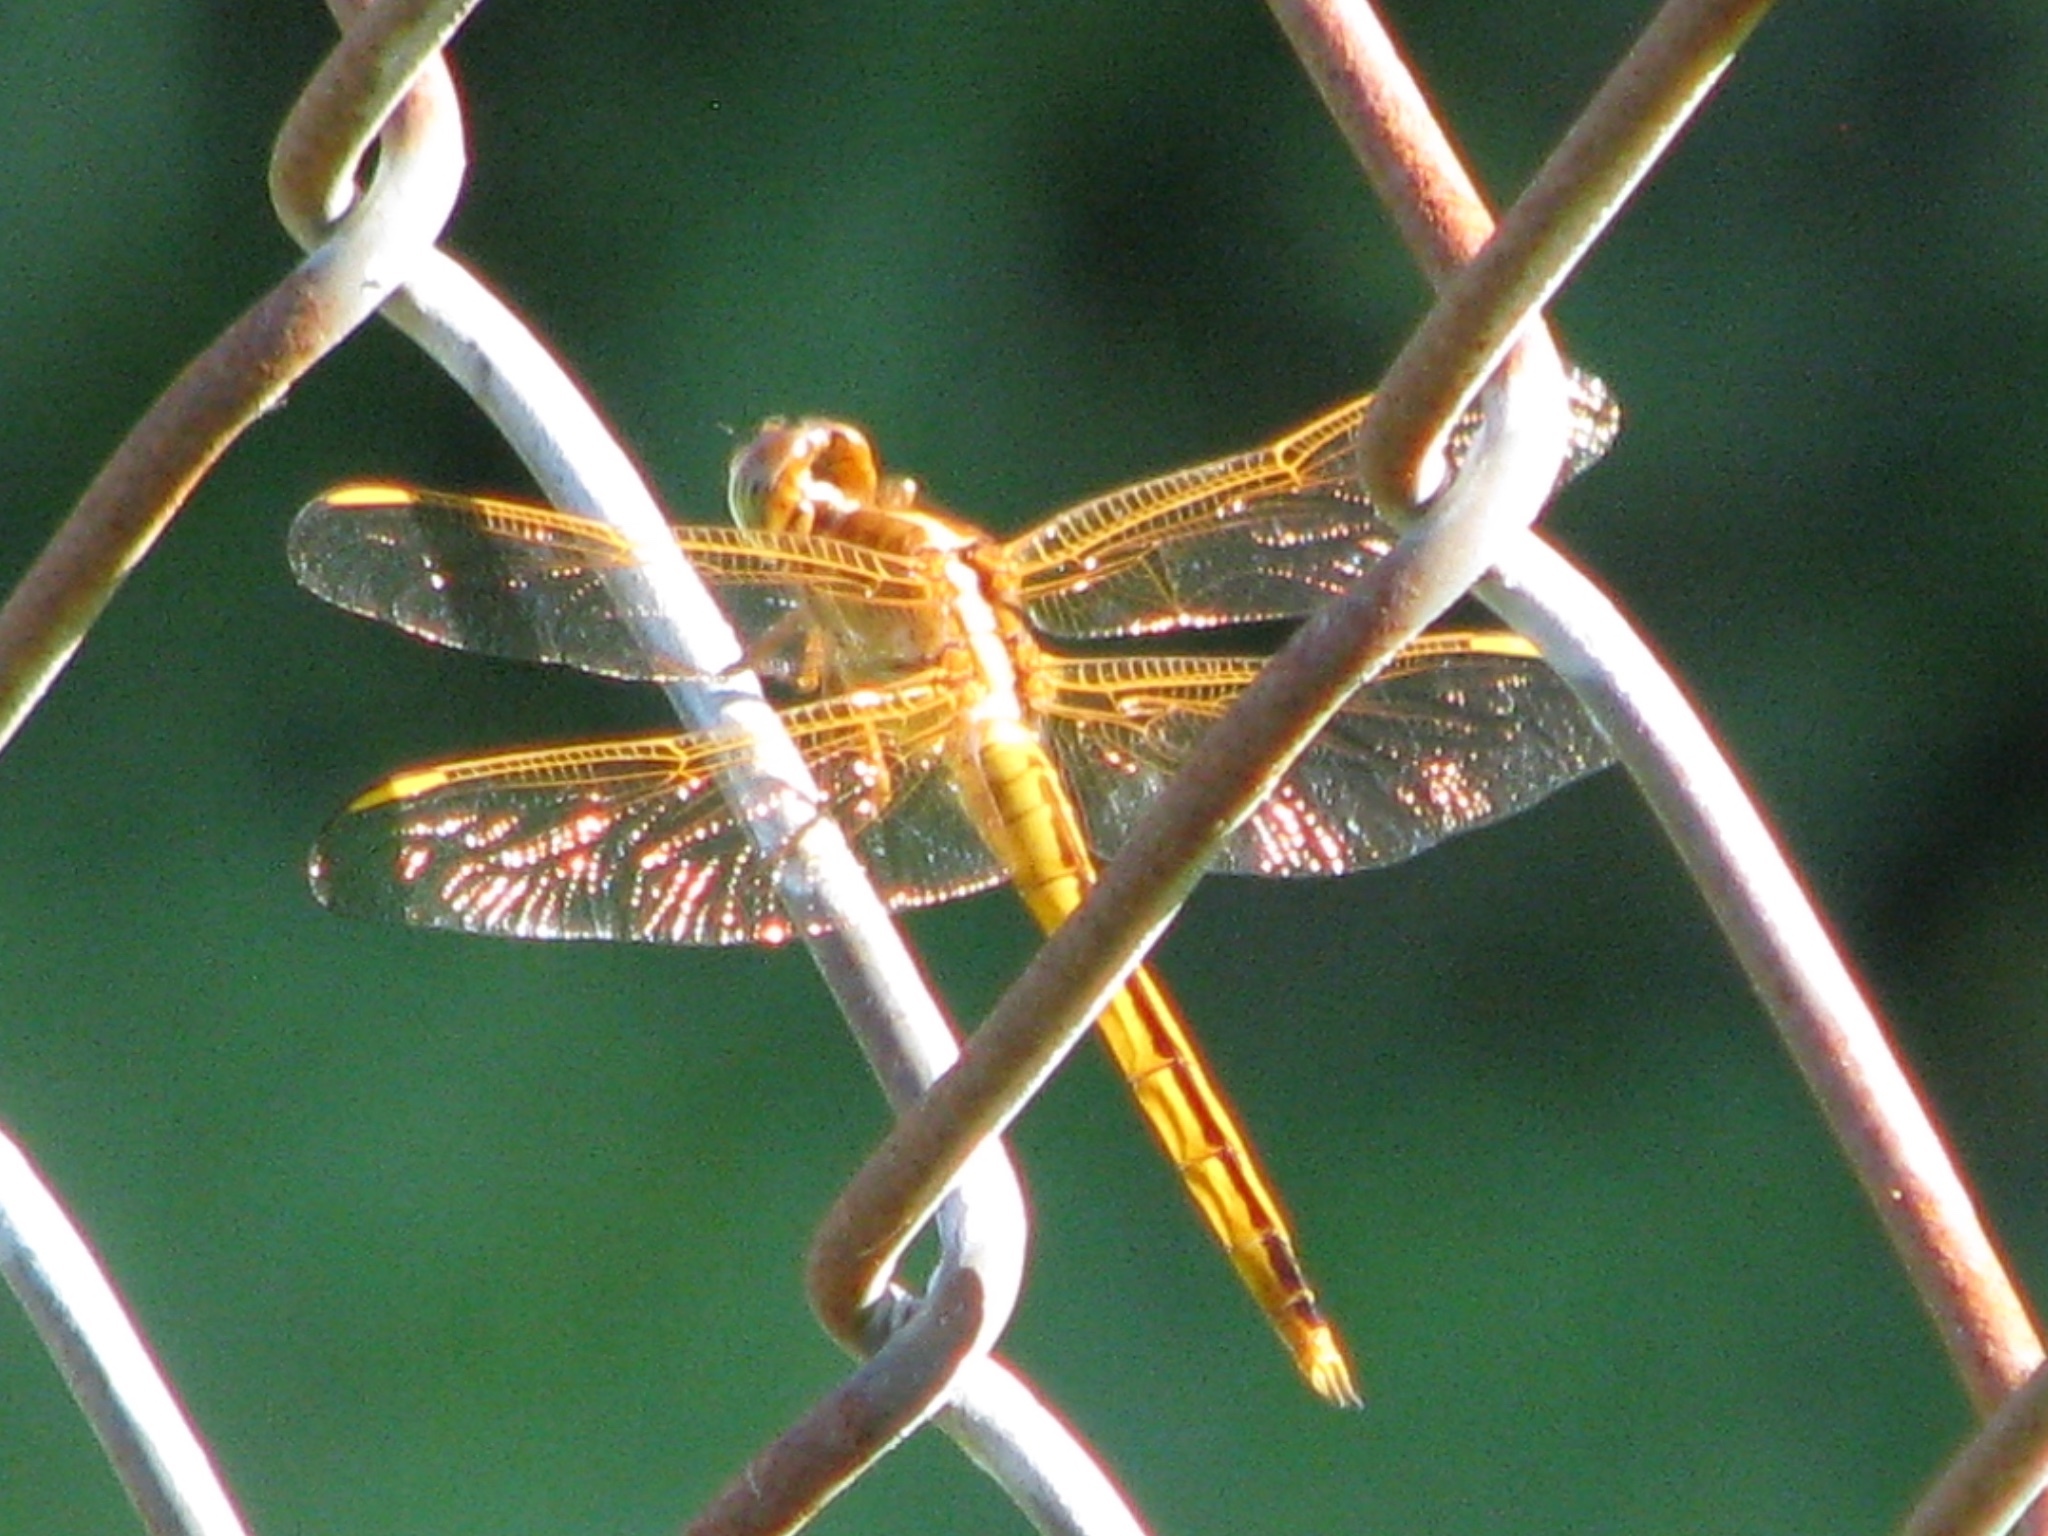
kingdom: Animalia
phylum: Arthropoda
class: Insecta
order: Odonata
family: Libellulidae
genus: Libellula
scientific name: Libellula needhami
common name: Needham's skimmer
